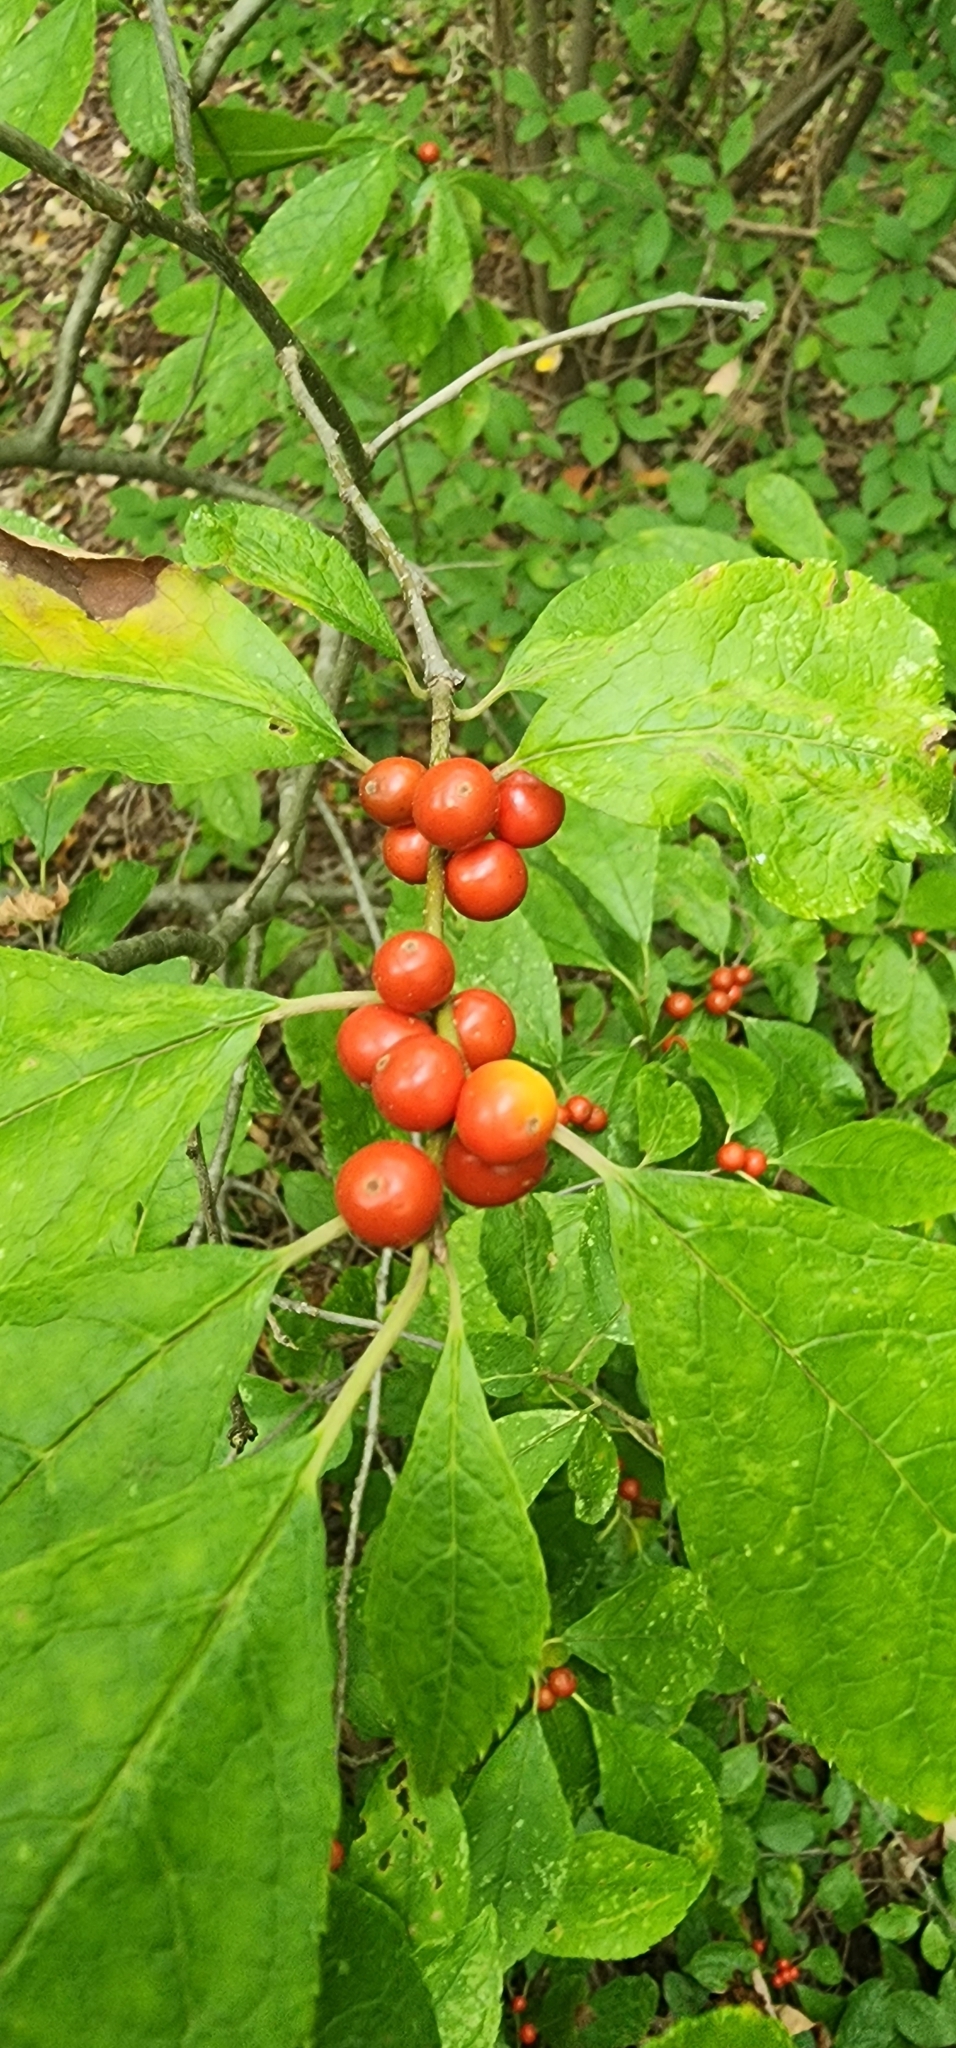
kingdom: Plantae
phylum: Tracheophyta
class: Magnoliopsida
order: Laurales
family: Lauraceae
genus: Lindera
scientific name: Lindera benzoin
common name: Spicebush
